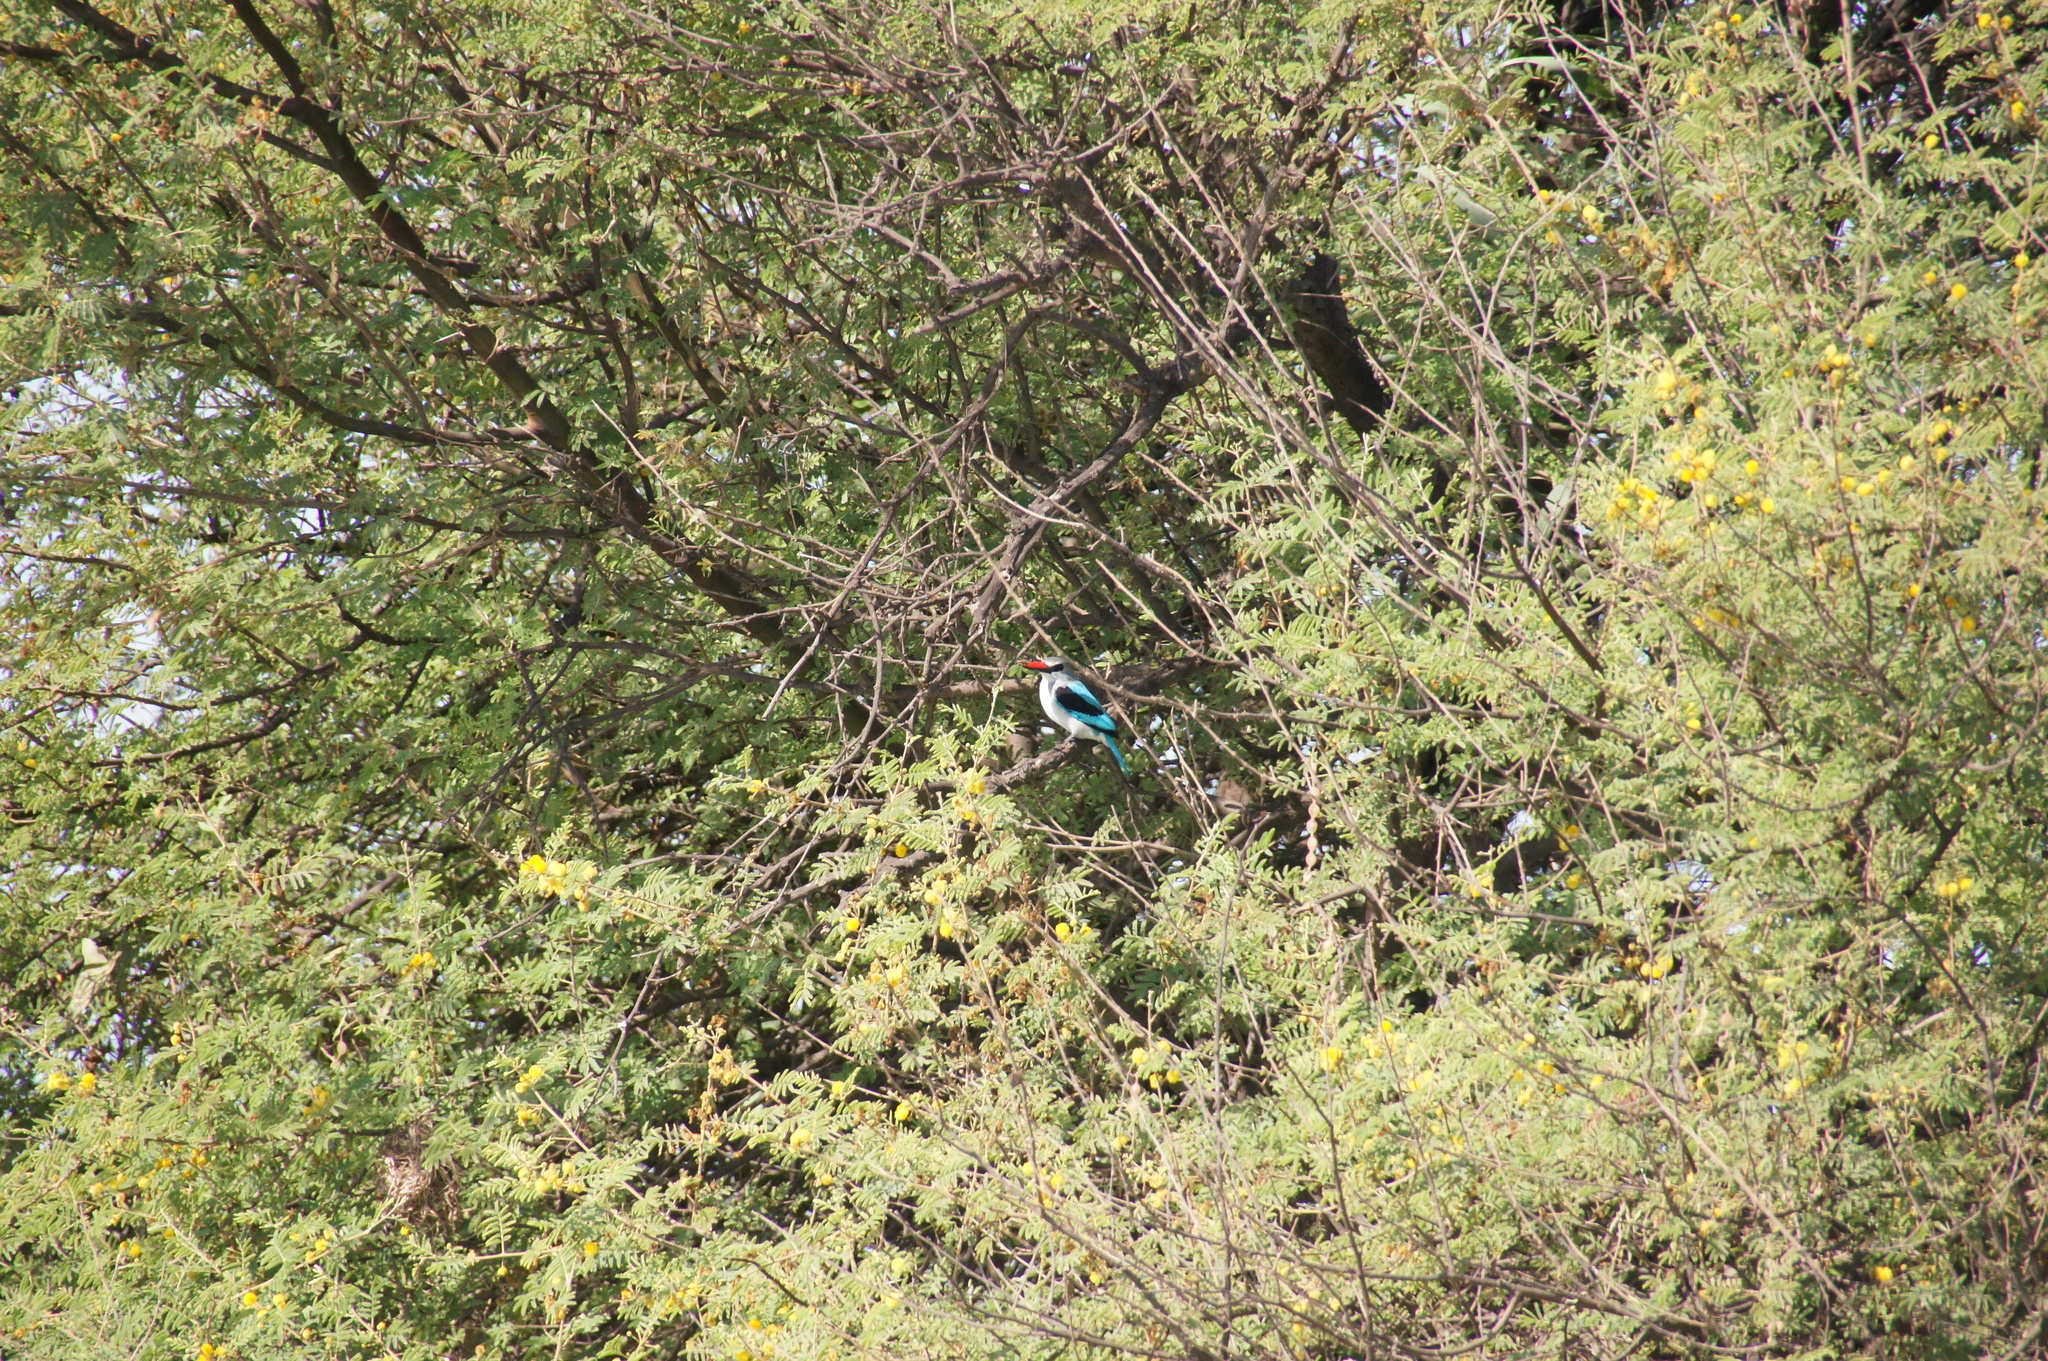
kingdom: Animalia
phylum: Chordata
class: Aves
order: Coraciiformes
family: Alcedinidae
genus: Halcyon
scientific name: Halcyon senegalensis
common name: Woodland kingfisher
